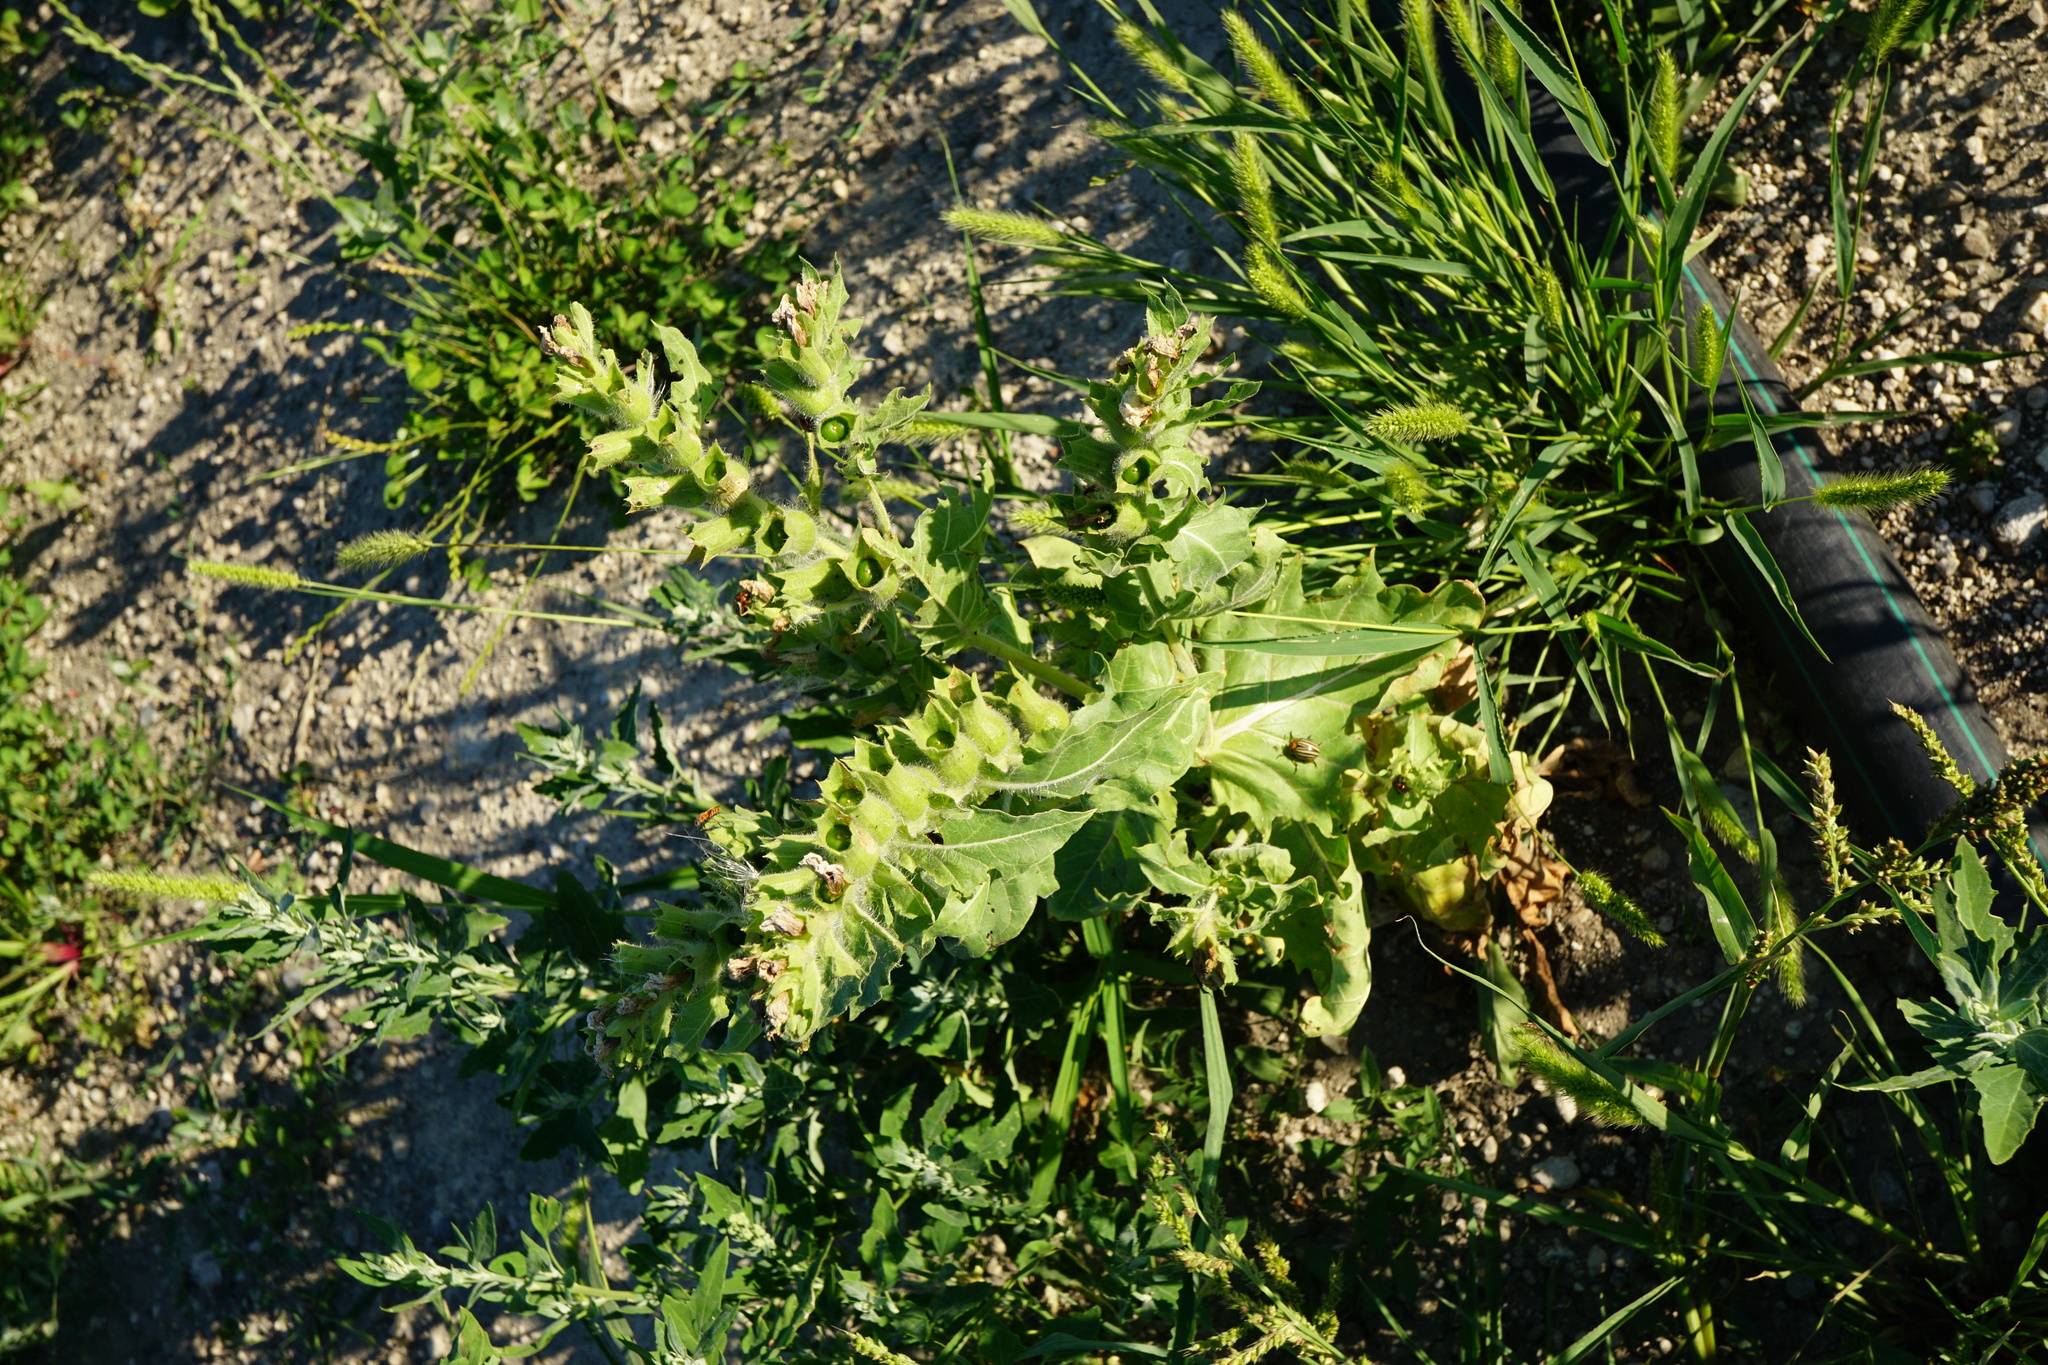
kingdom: Plantae
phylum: Tracheophyta
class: Magnoliopsida
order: Solanales
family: Solanaceae
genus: Hyoscyamus
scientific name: Hyoscyamus niger
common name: Henbane
